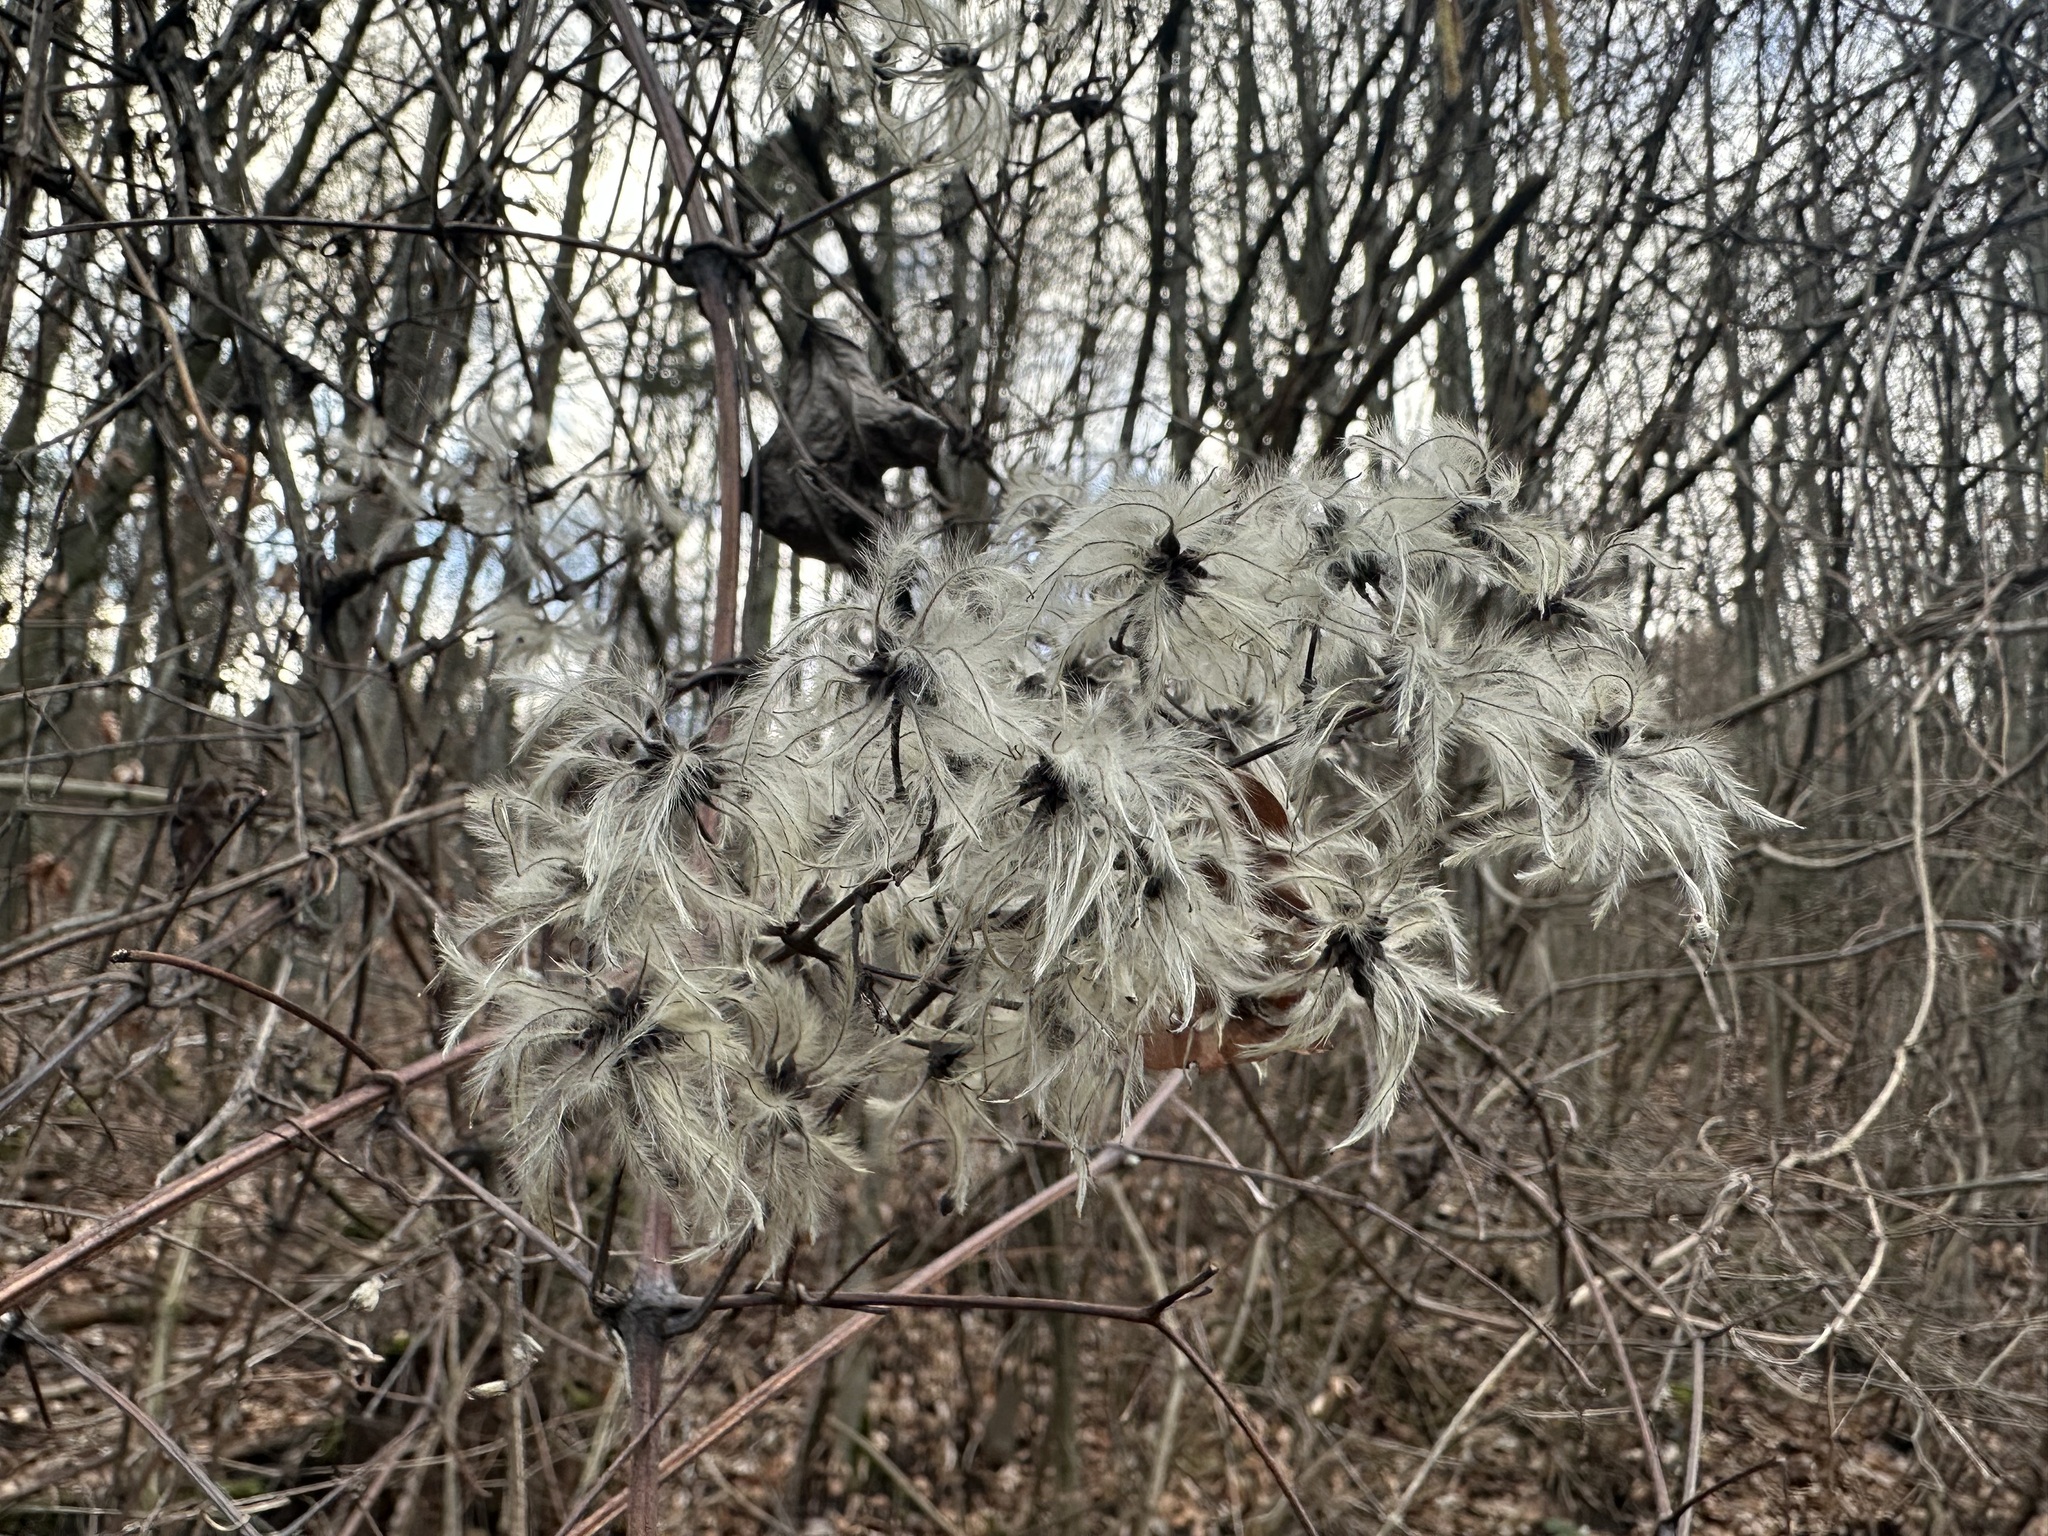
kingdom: Plantae
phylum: Tracheophyta
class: Magnoliopsida
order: Ranunculales
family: Ranunculaceae
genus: Clematis
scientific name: Clematis vitalba
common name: Evergreen clematis
